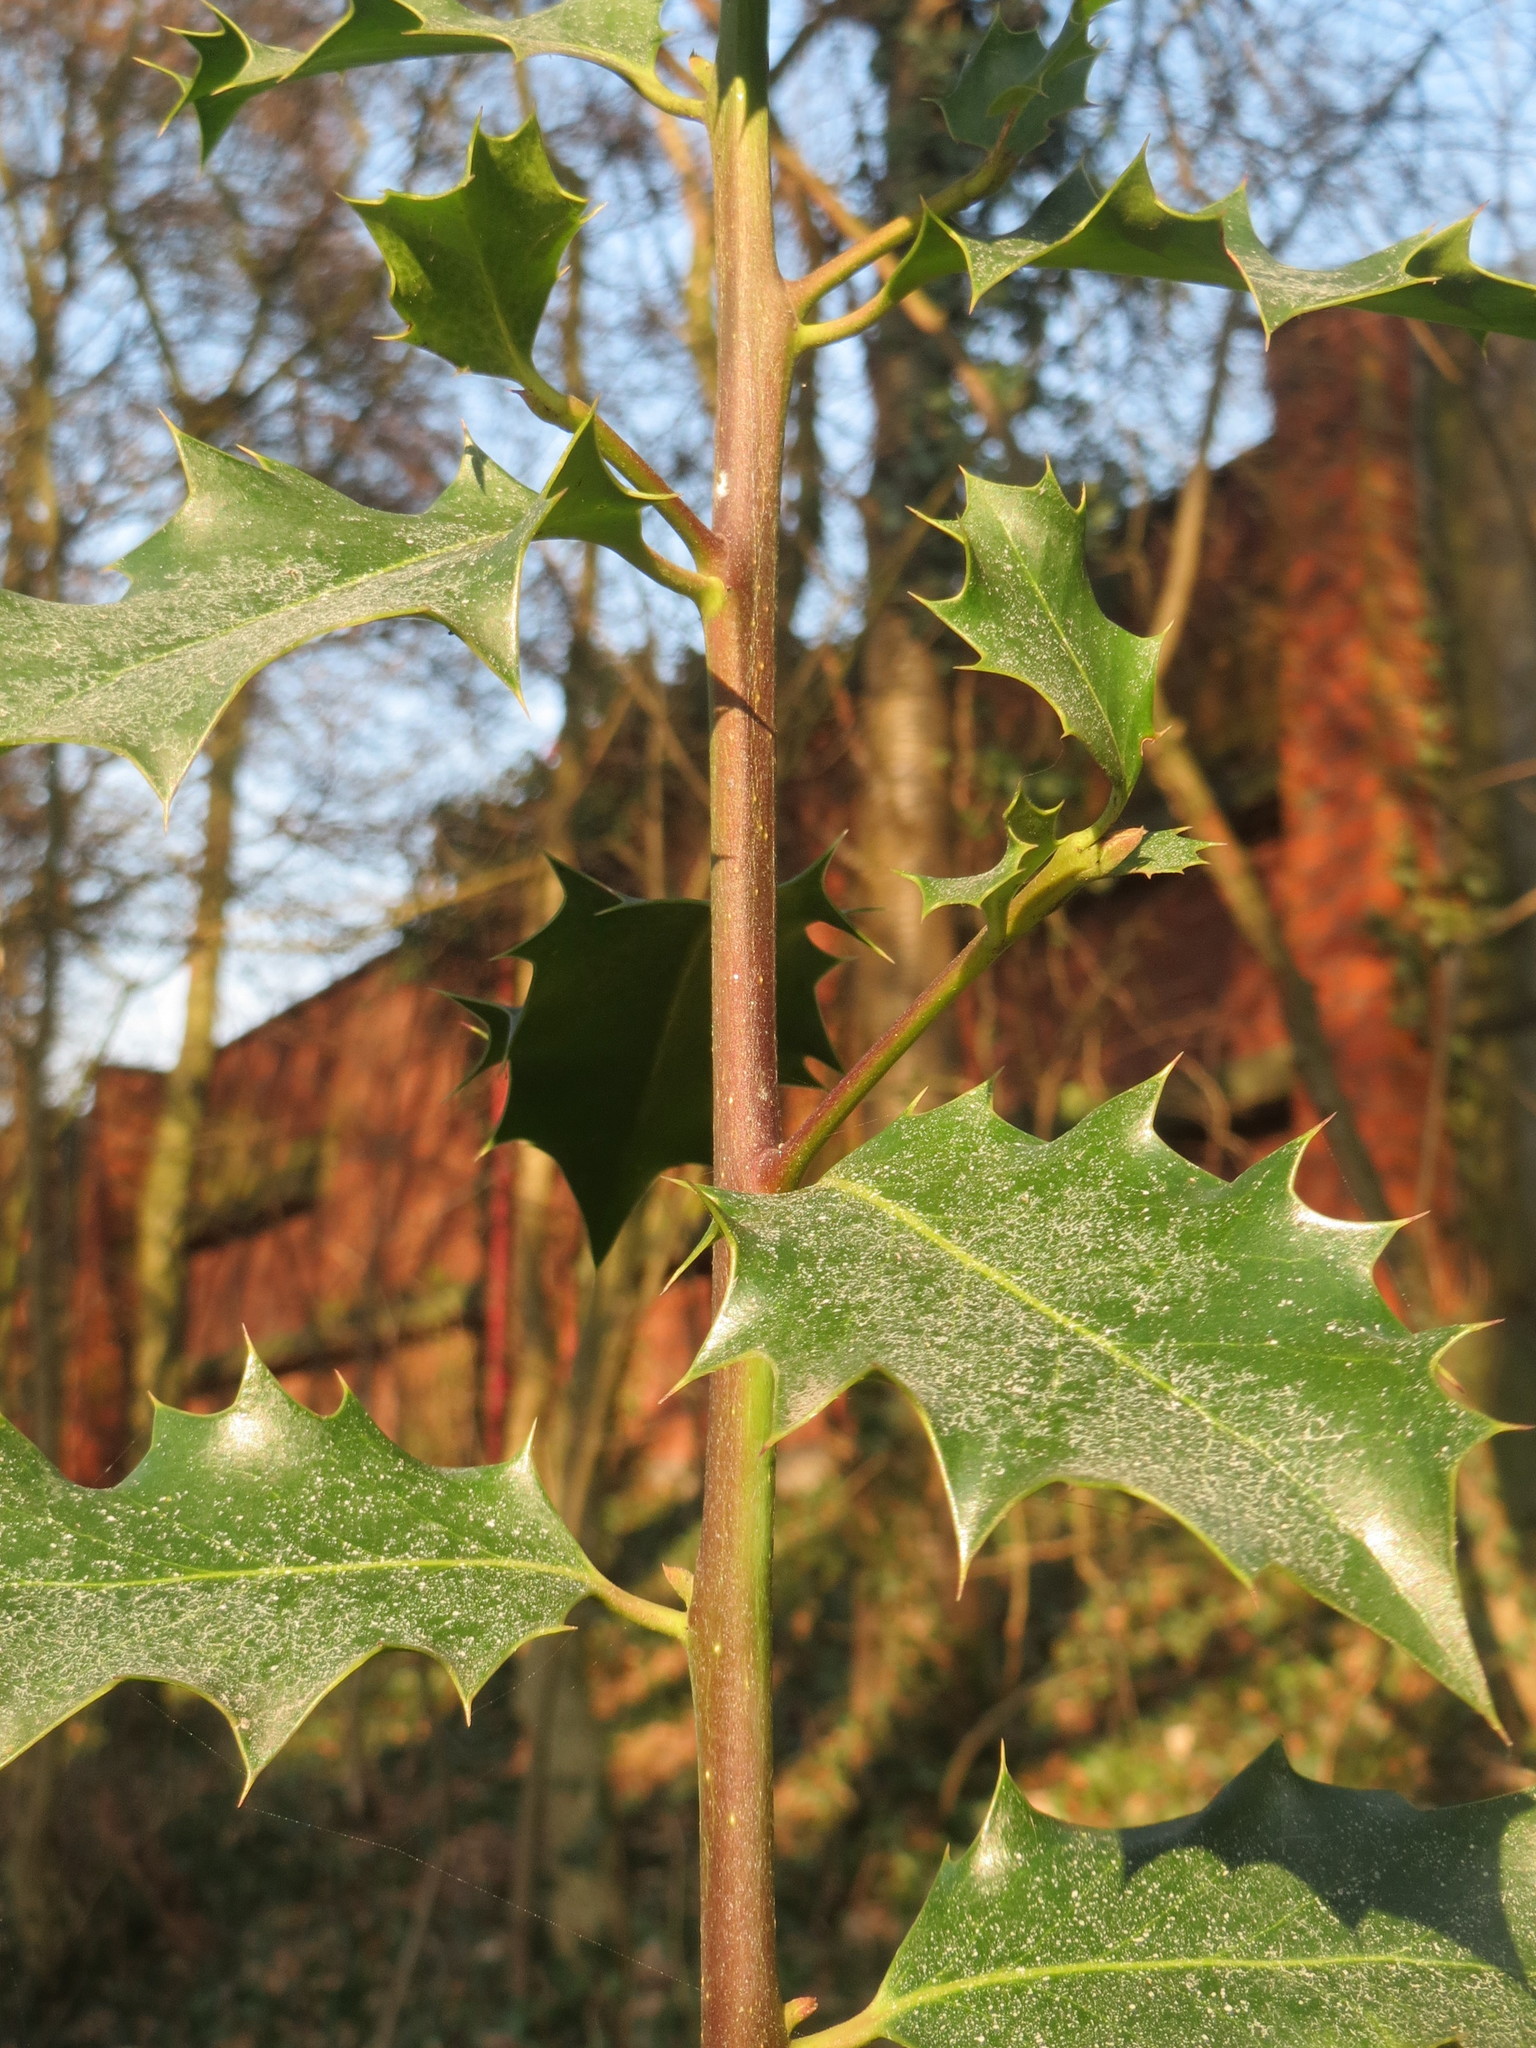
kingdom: Plantae
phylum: Tracheophyta
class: Magnoliopsida
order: Aquifoliales
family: Aquifoliaceae
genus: Ilex
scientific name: Ilex aquifolium
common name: English holly
